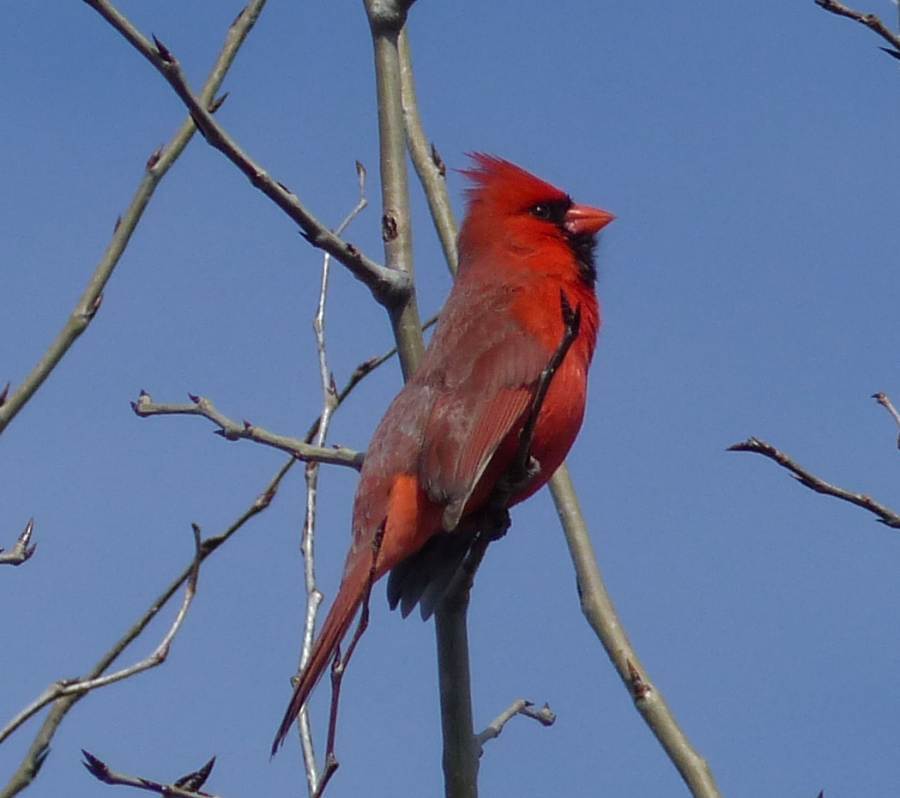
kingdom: Animalia
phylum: Chordata
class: Aves
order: Passeriformes
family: Cardinalidae
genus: Cardinalis
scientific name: Cardinalis cardinalis
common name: Northern cardinal
